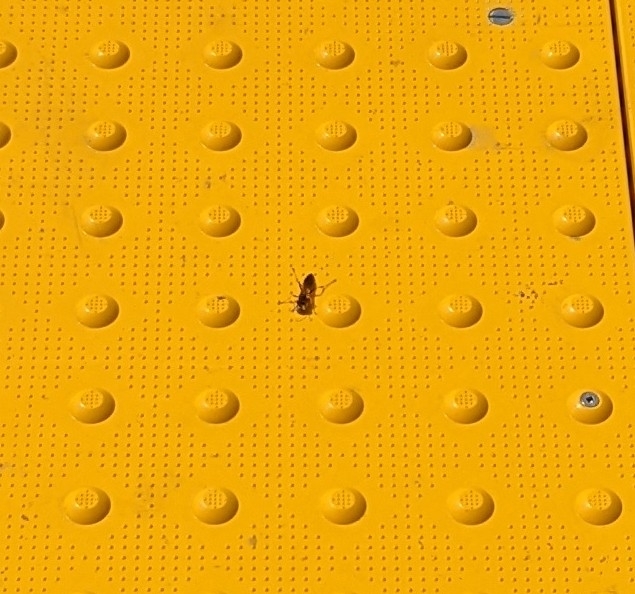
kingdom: Animalia
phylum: Arthropoda
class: Insecta
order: Hymenoptera
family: Sphecidae
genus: Sceliphron
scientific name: Sceliphron caementarium
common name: Mud dauber
